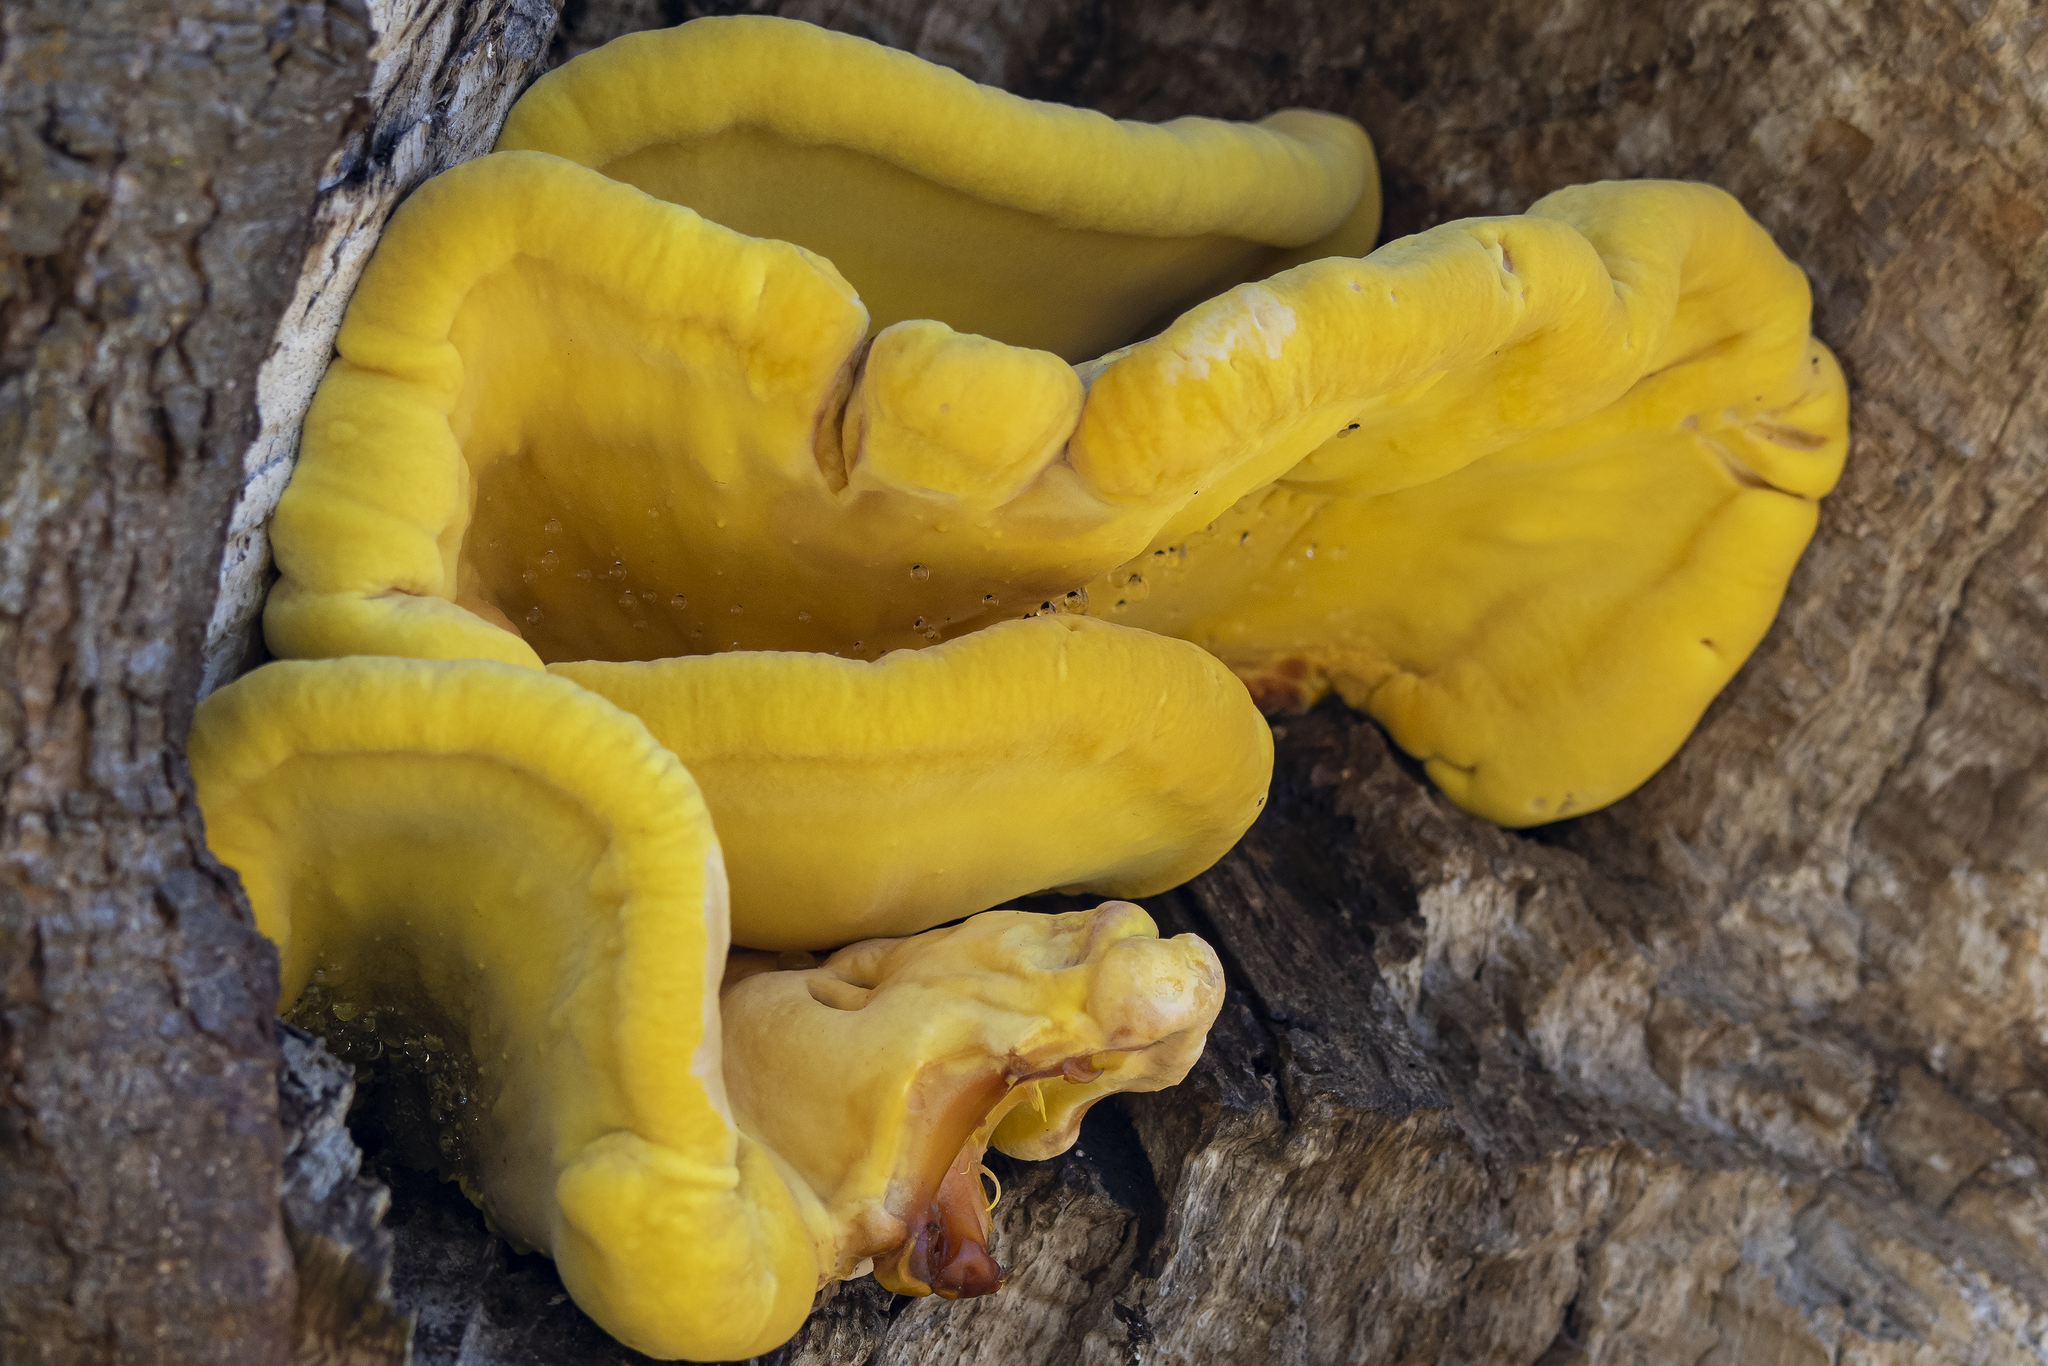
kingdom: Fungi
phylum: Basidiomycota
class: Agaricomycetes
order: Polyporales
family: Laetiporaceae
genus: Laetiporus
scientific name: Laetiporus gilbertsonii
